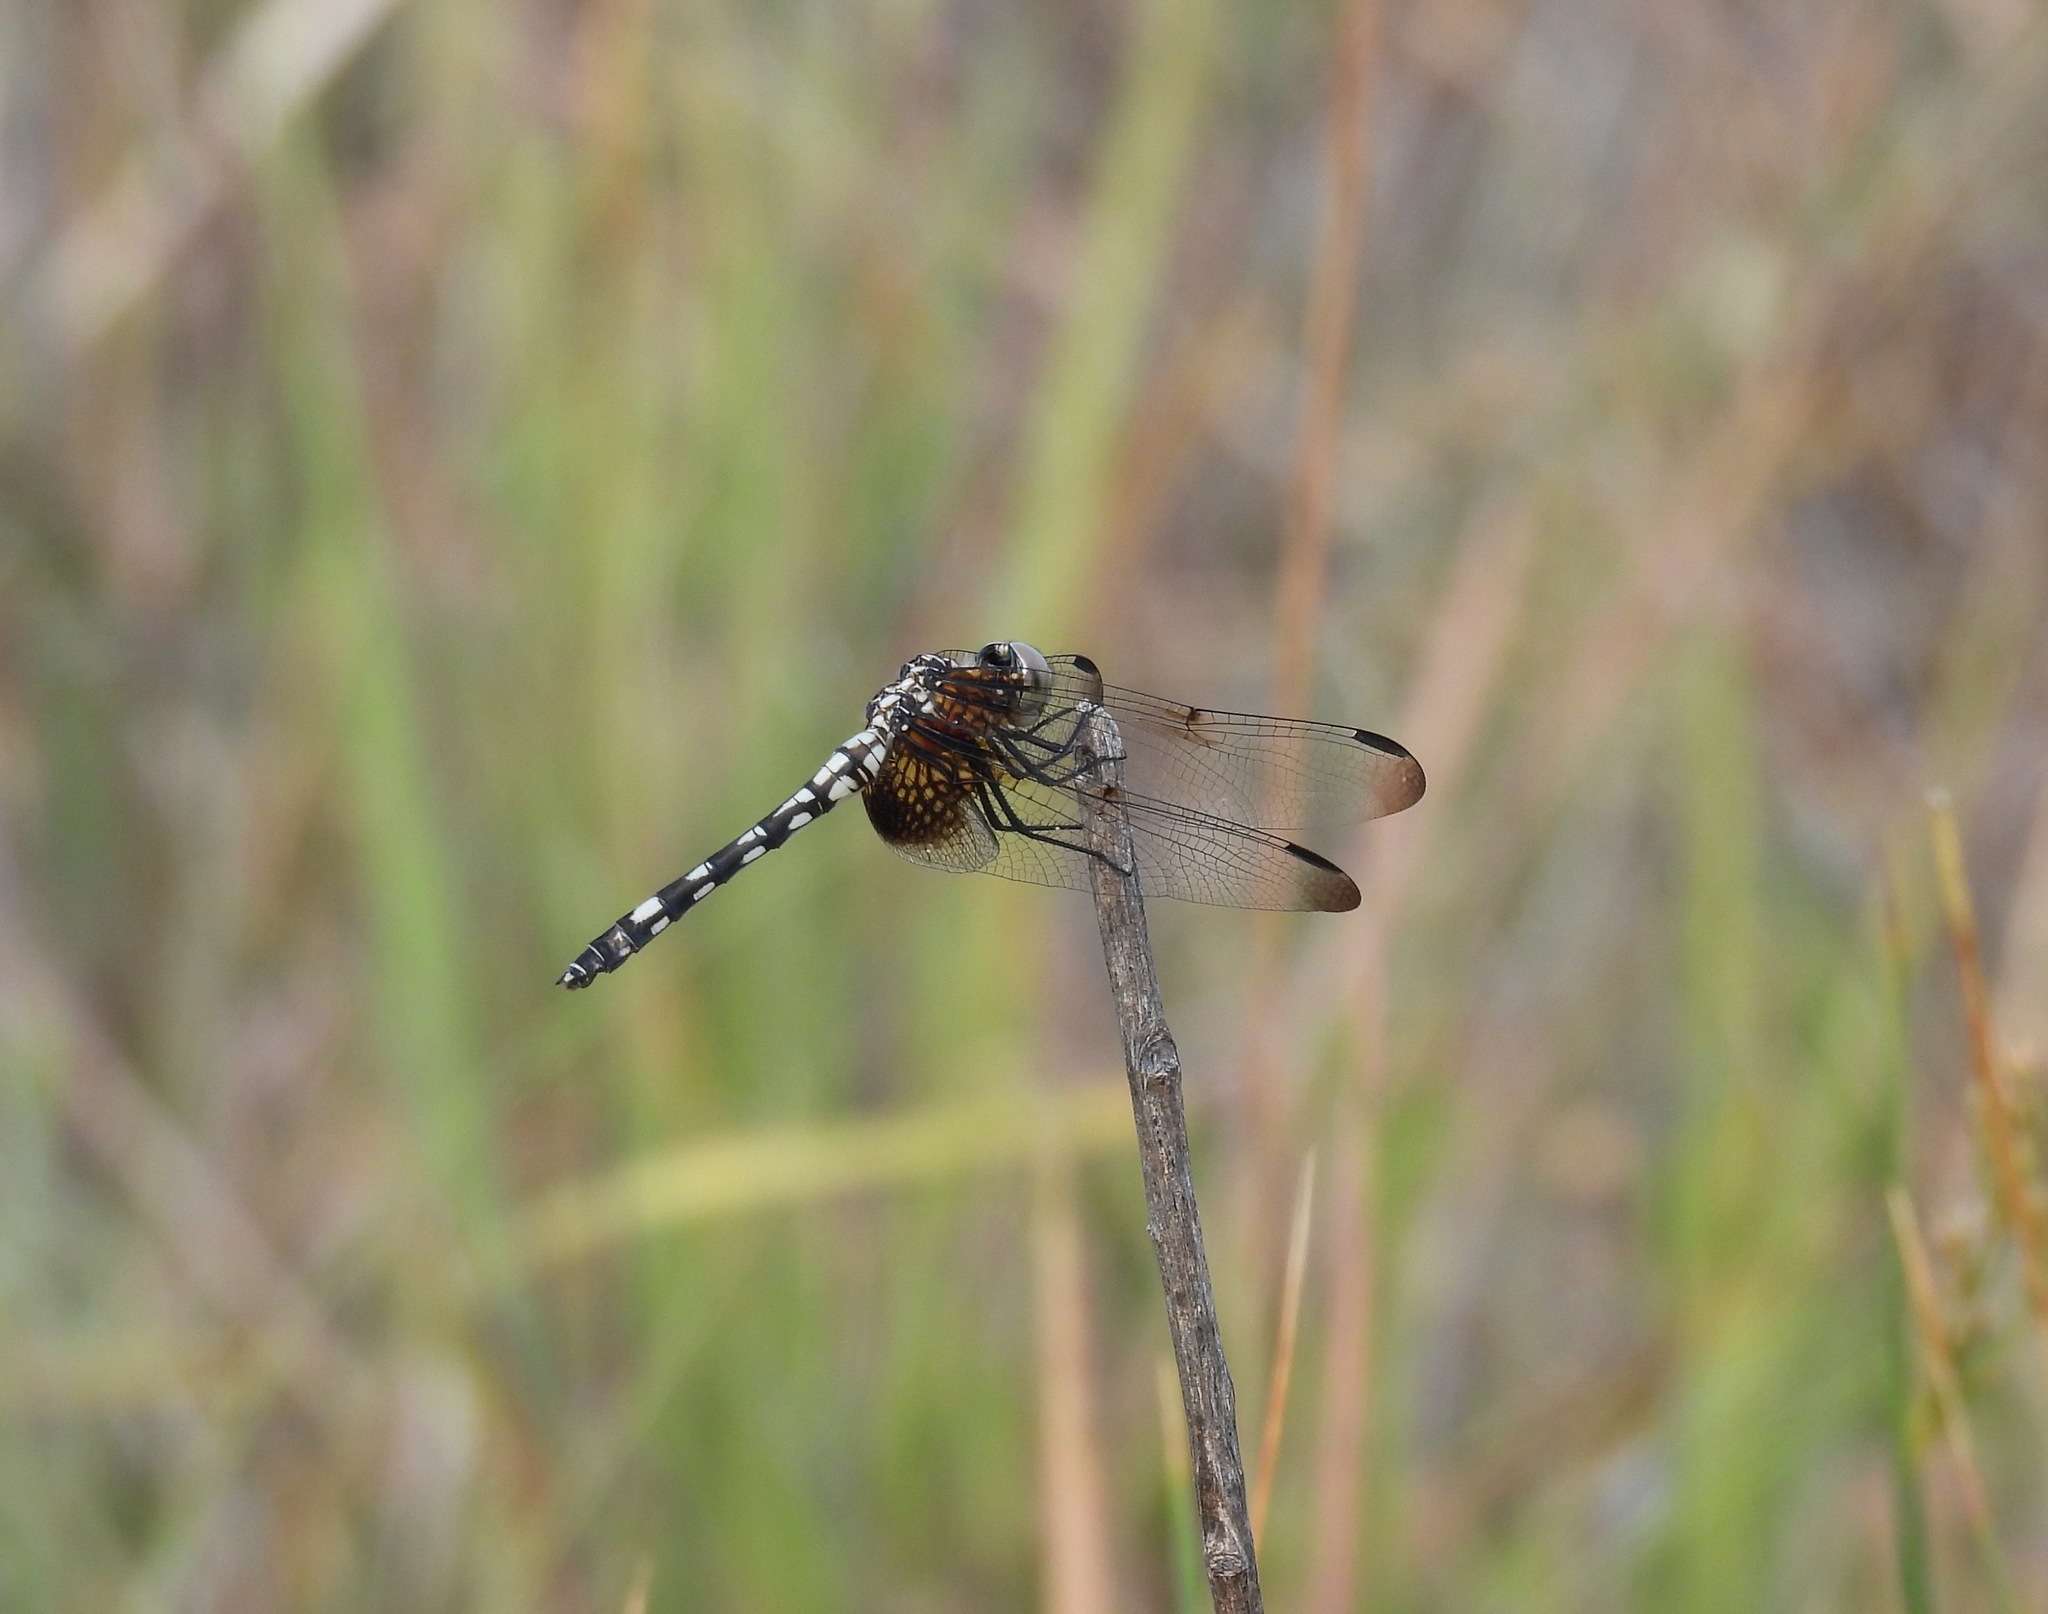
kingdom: Animalia
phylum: Arthropoda
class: Insecta
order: Odonata
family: Libellulidae
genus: Dythemis
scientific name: Dythemis fugax
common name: Checkered setwing
